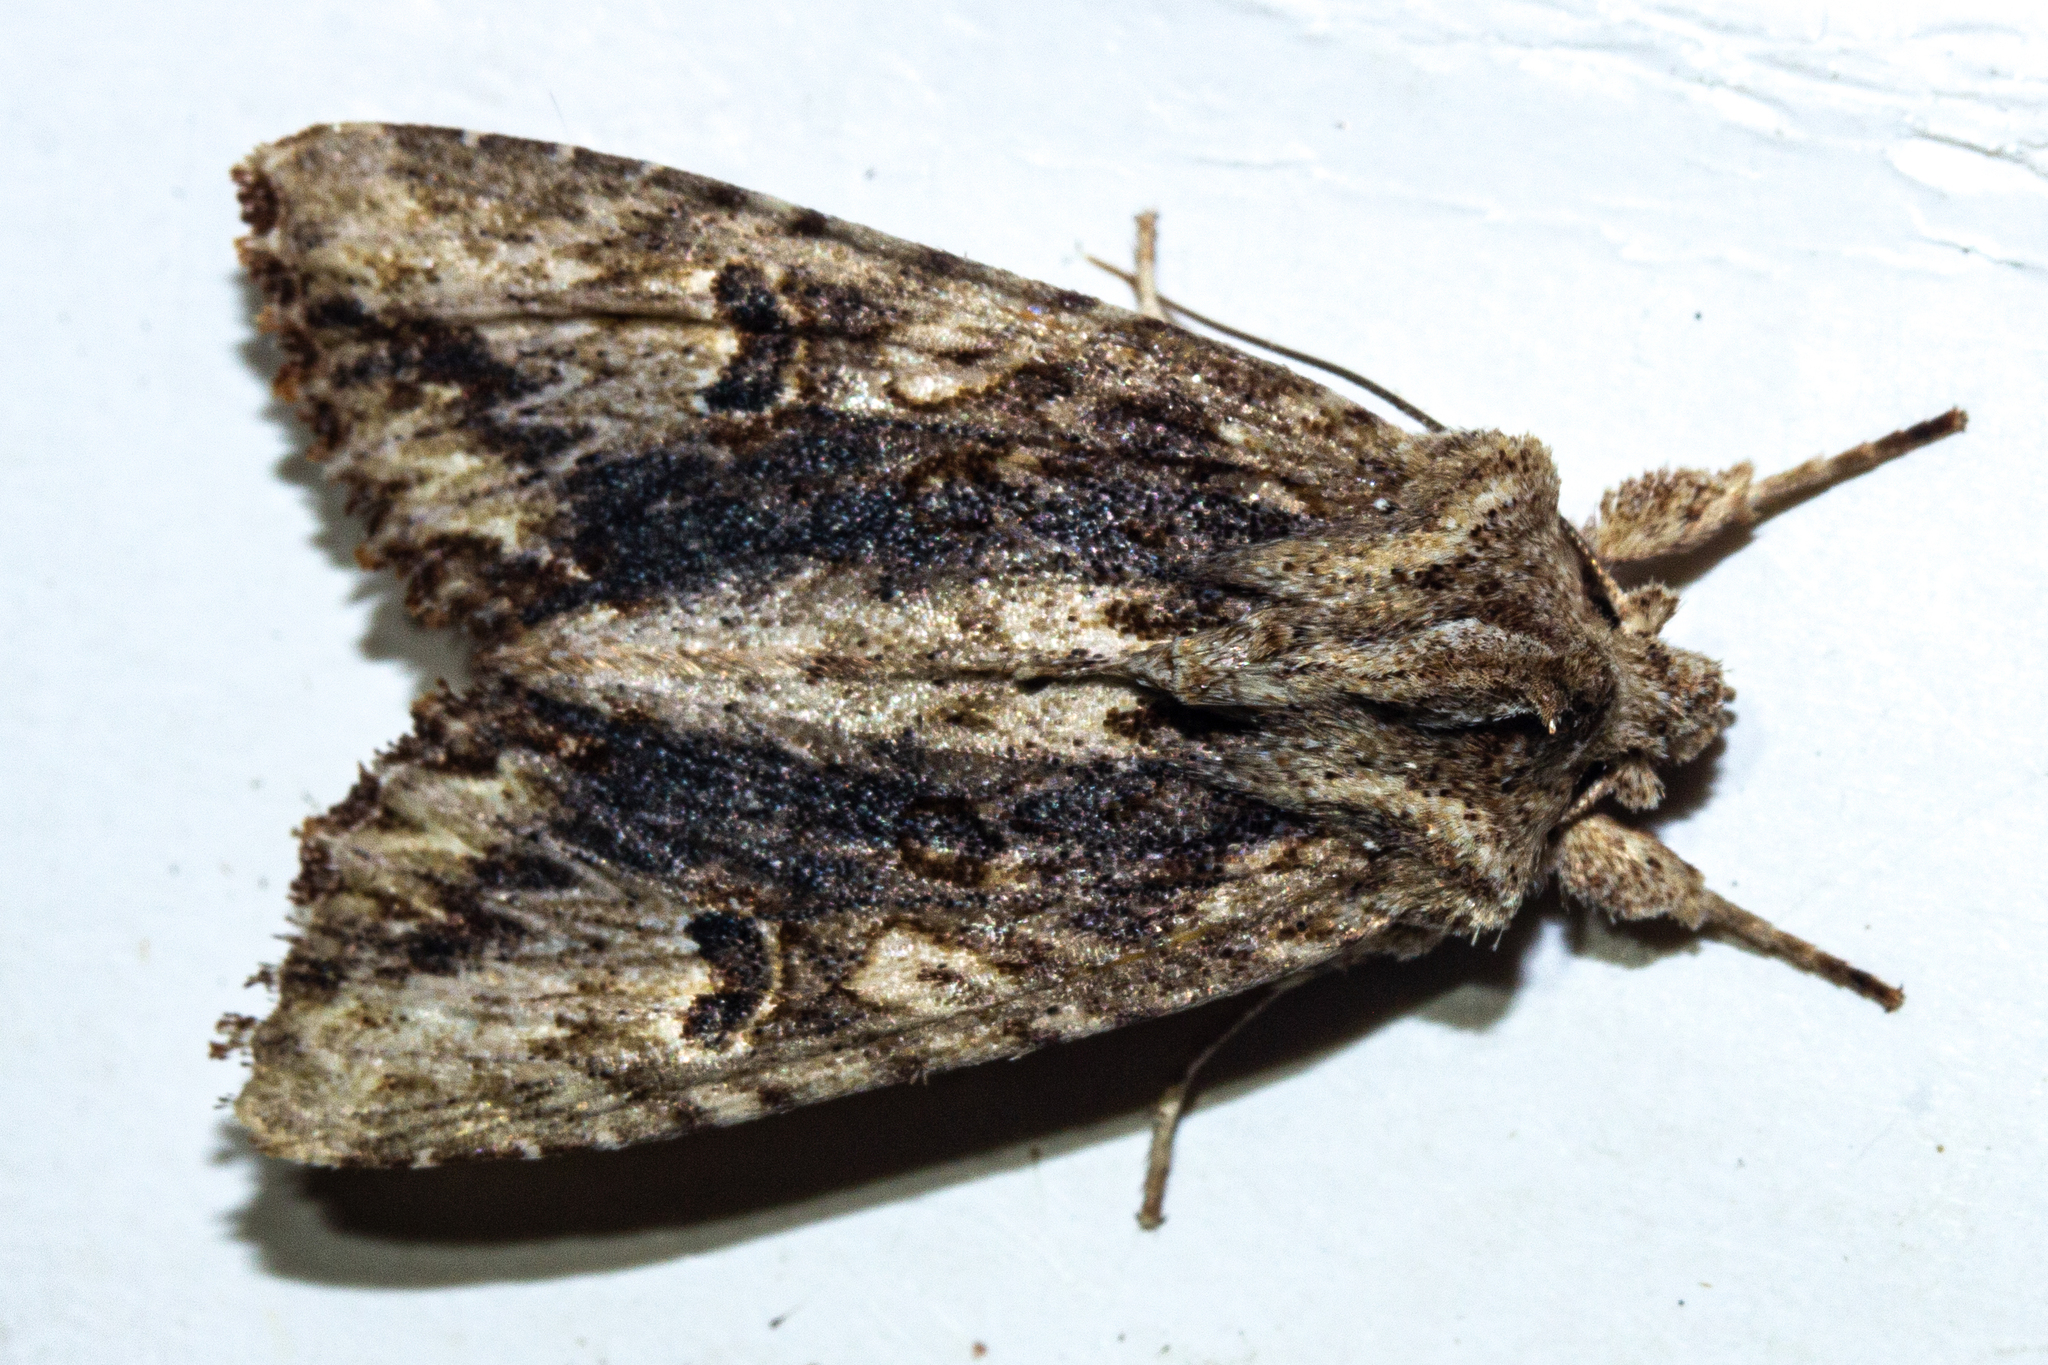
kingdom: Animalia
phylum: Arthropoda
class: Insecta
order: Lepidoptera
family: Noctuidae
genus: Meterana
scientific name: Meterana pascoei
